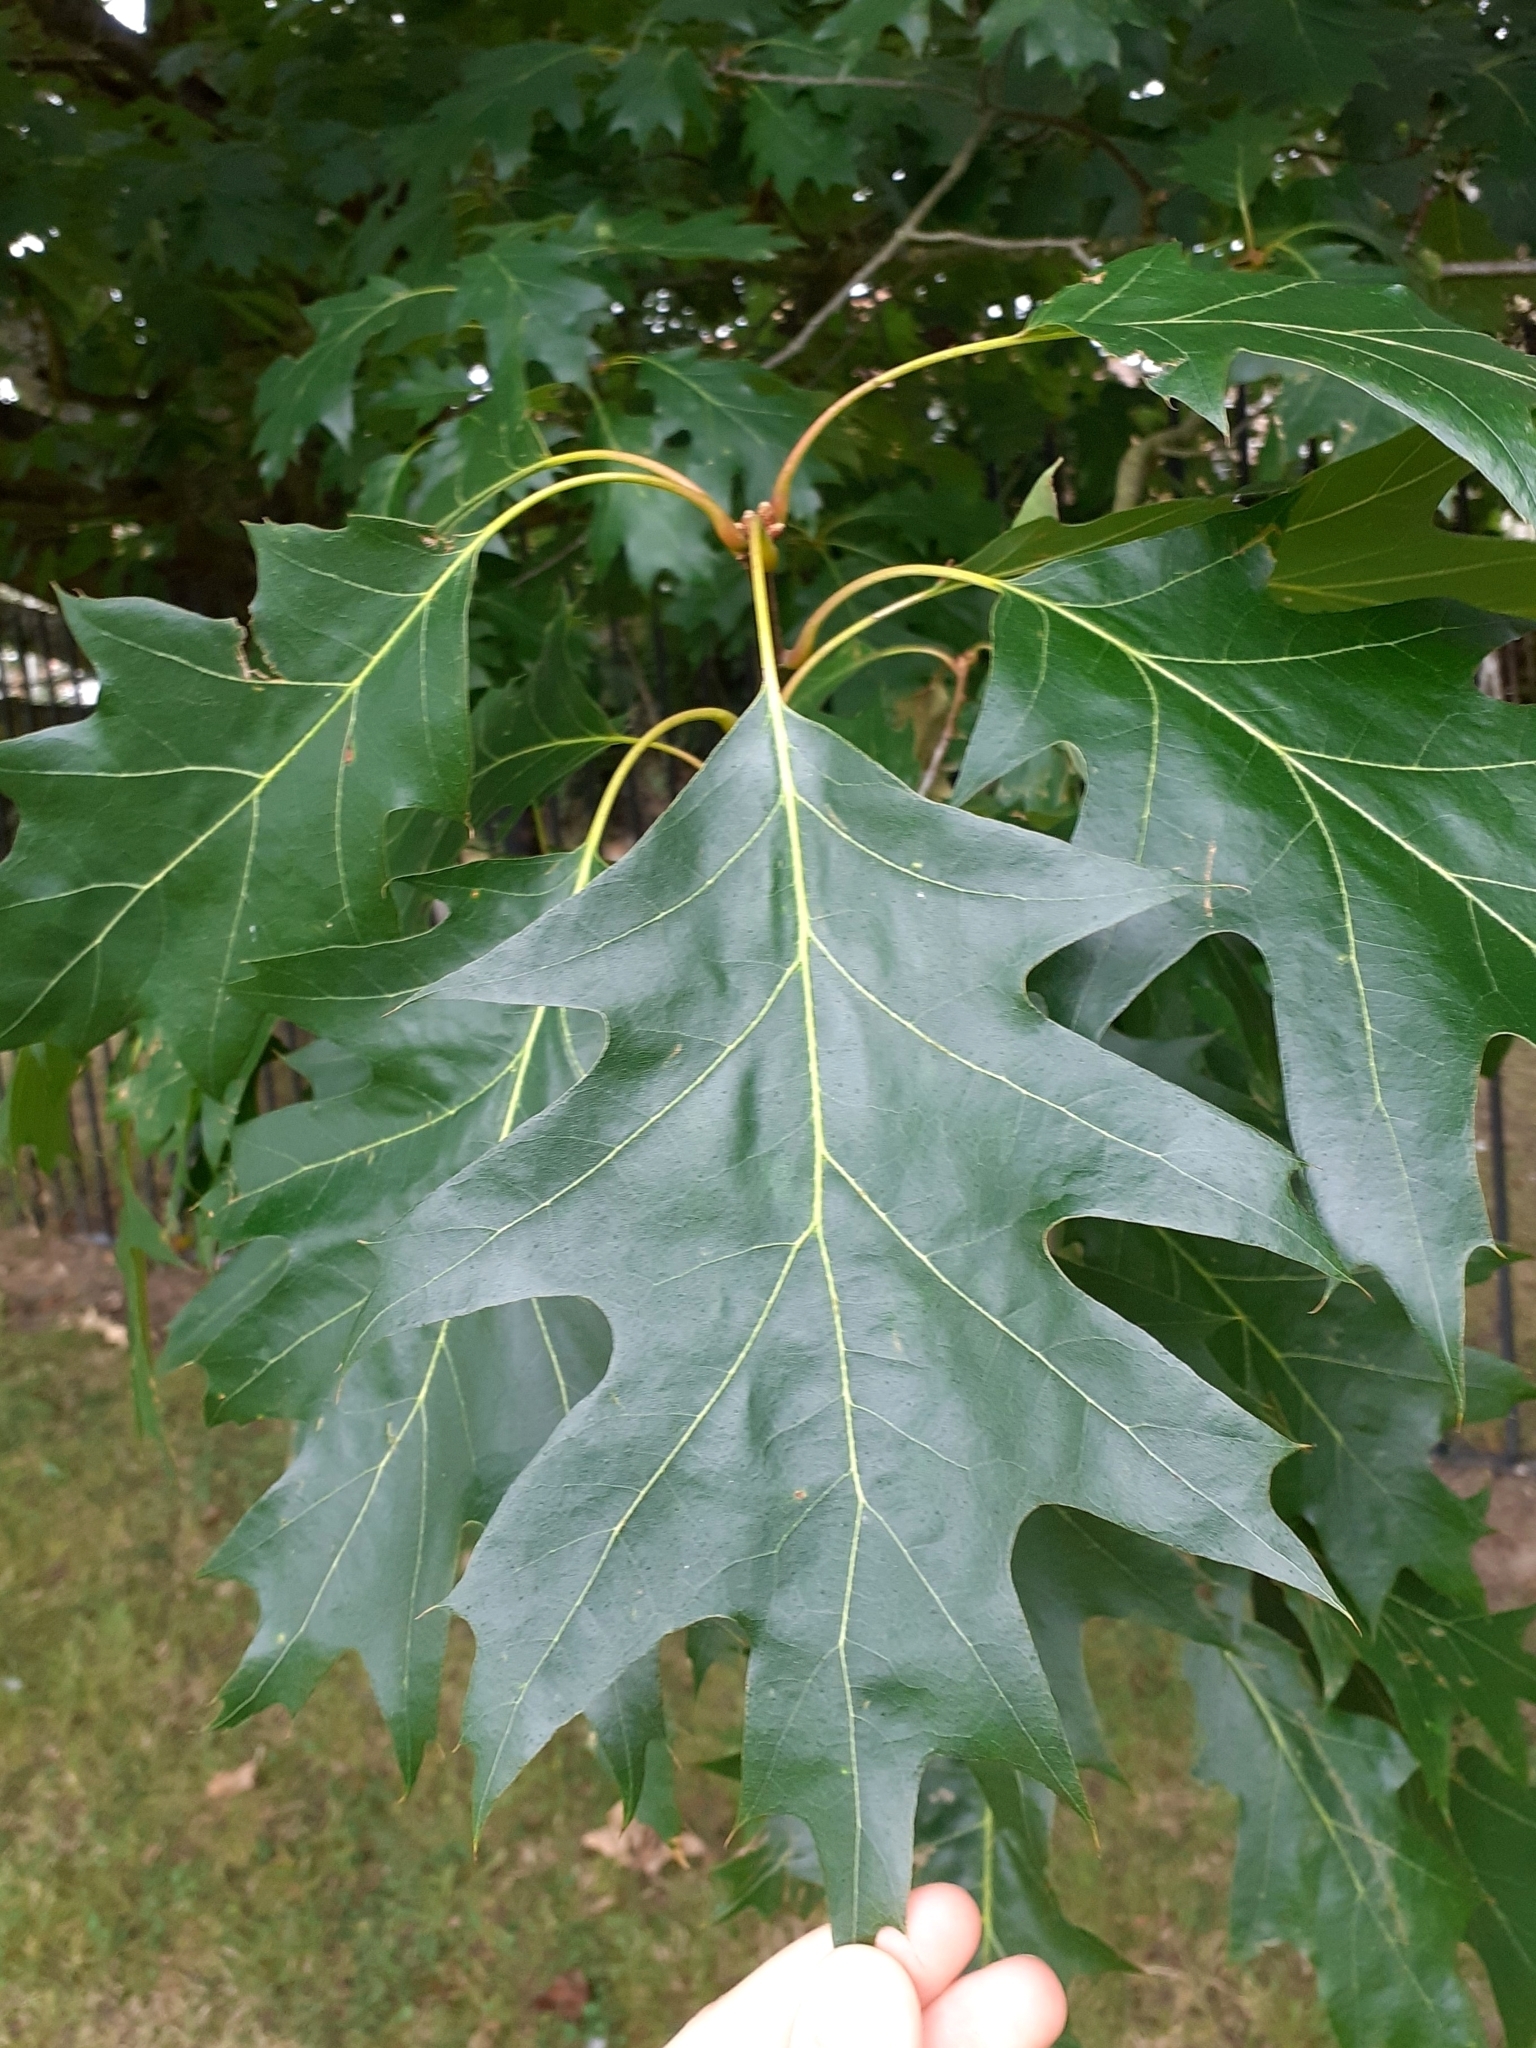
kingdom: Plantae
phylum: Tracheophyta
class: Magnoliopsida
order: Fagales
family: Fagaceae
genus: Quercus
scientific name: Quercus rubra
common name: Red oak
